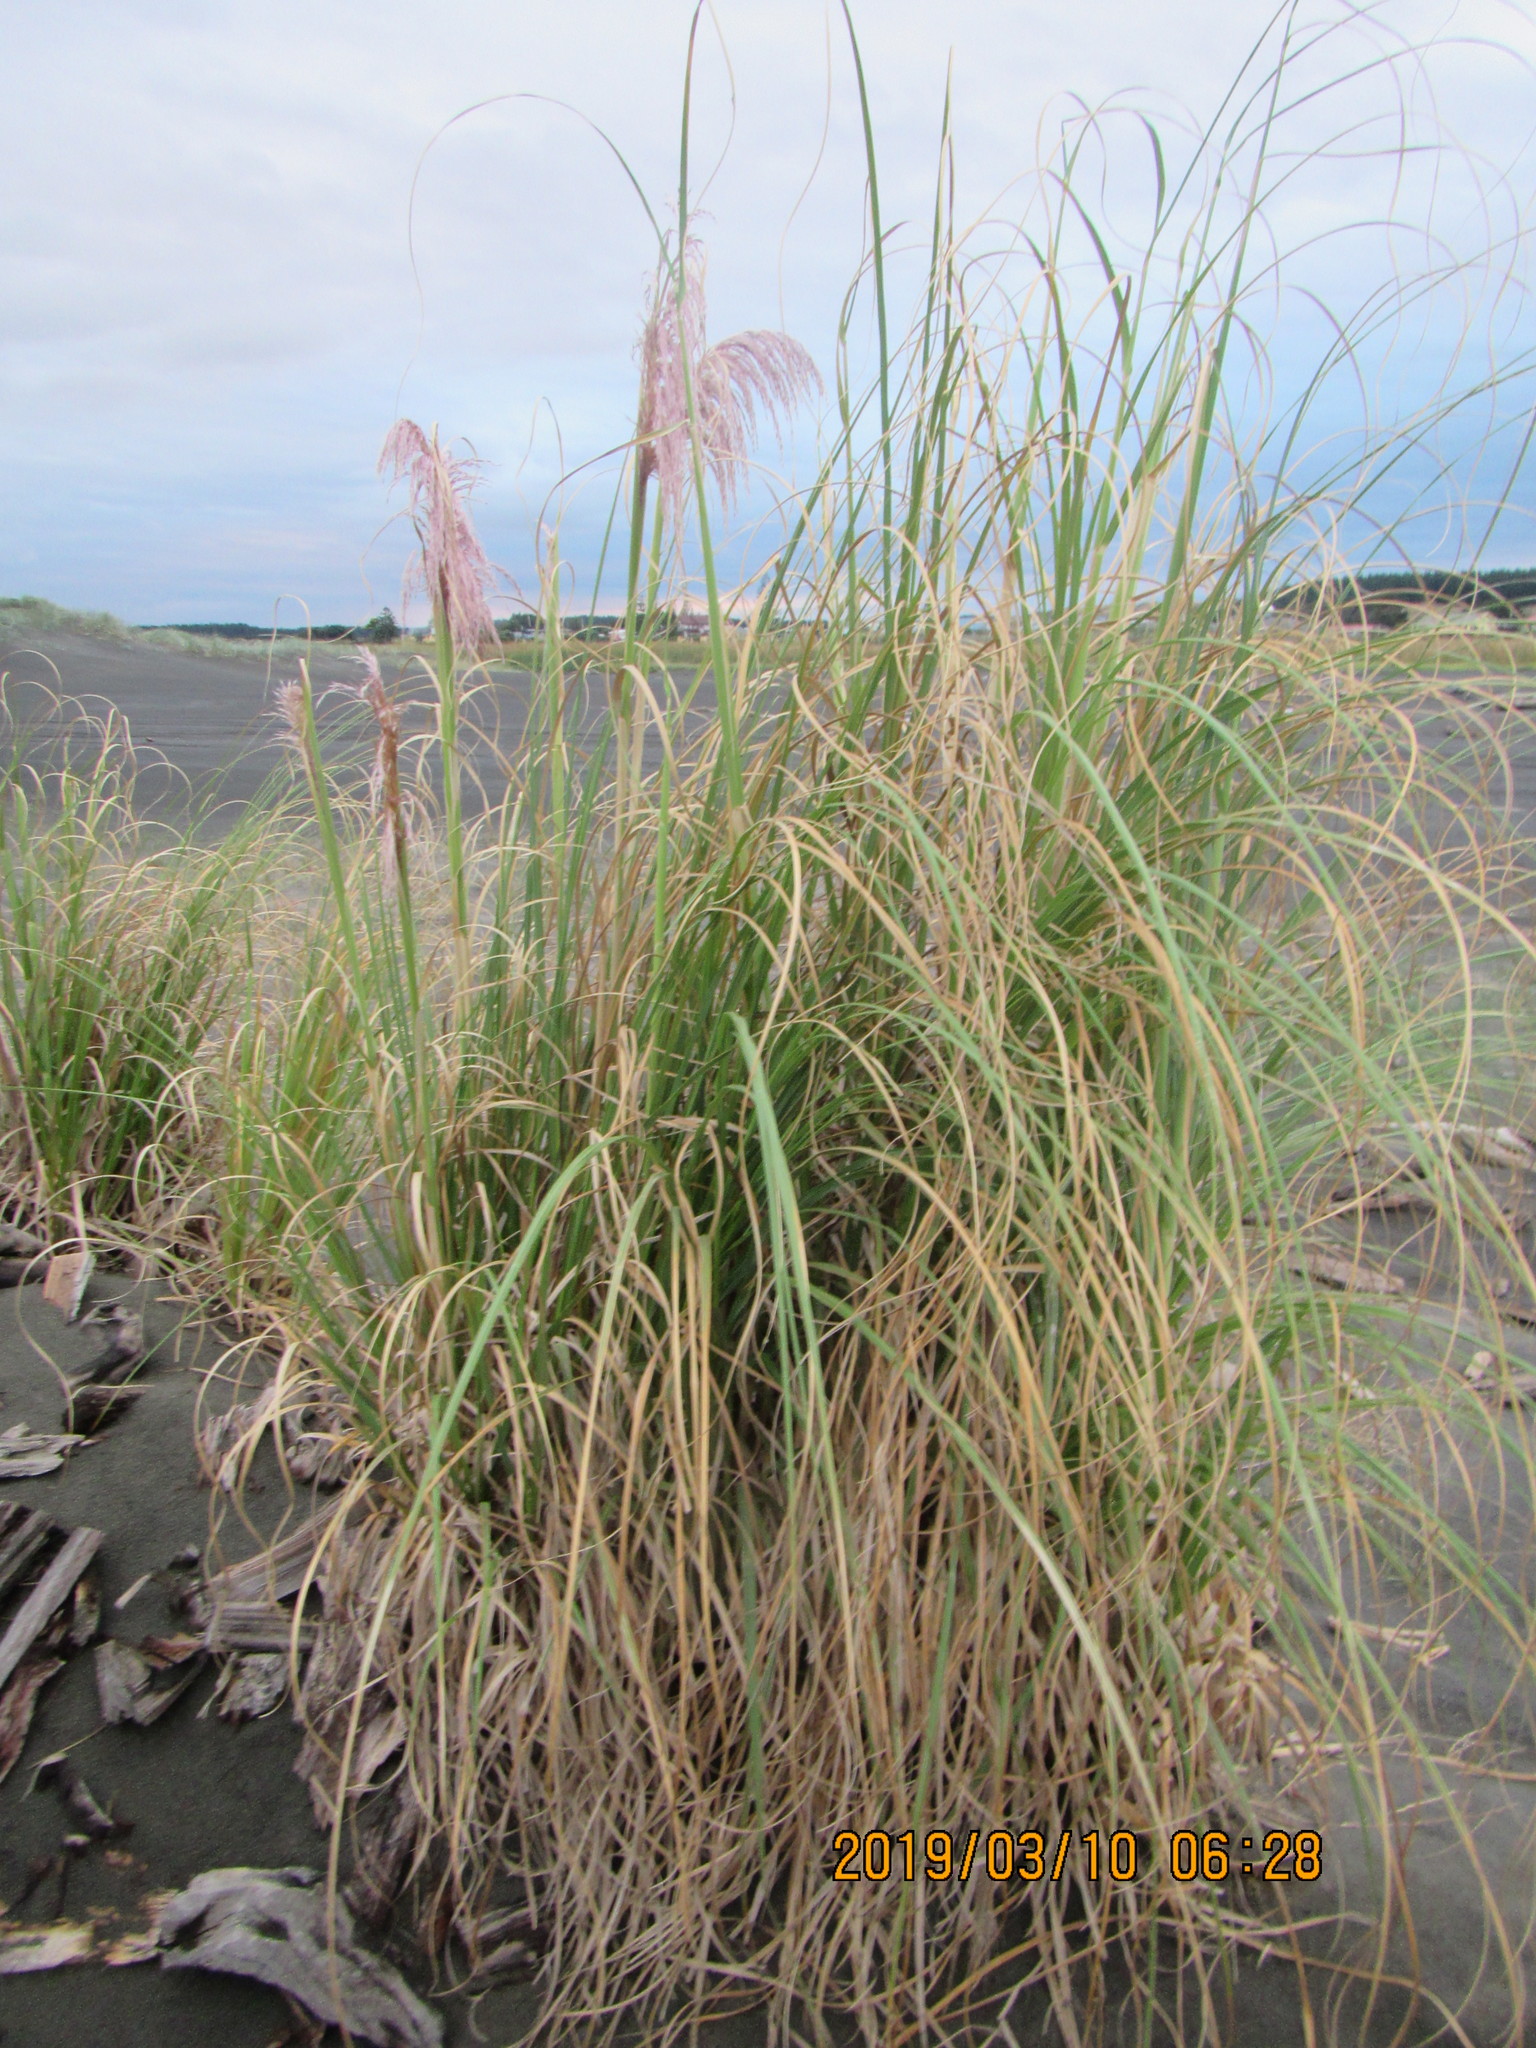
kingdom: Plantae
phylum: Tracheophyta
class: Liliopsida
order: Poales
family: Poaceae
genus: Cortaderia
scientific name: Cortaderia jubata
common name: Purple pampas grass
